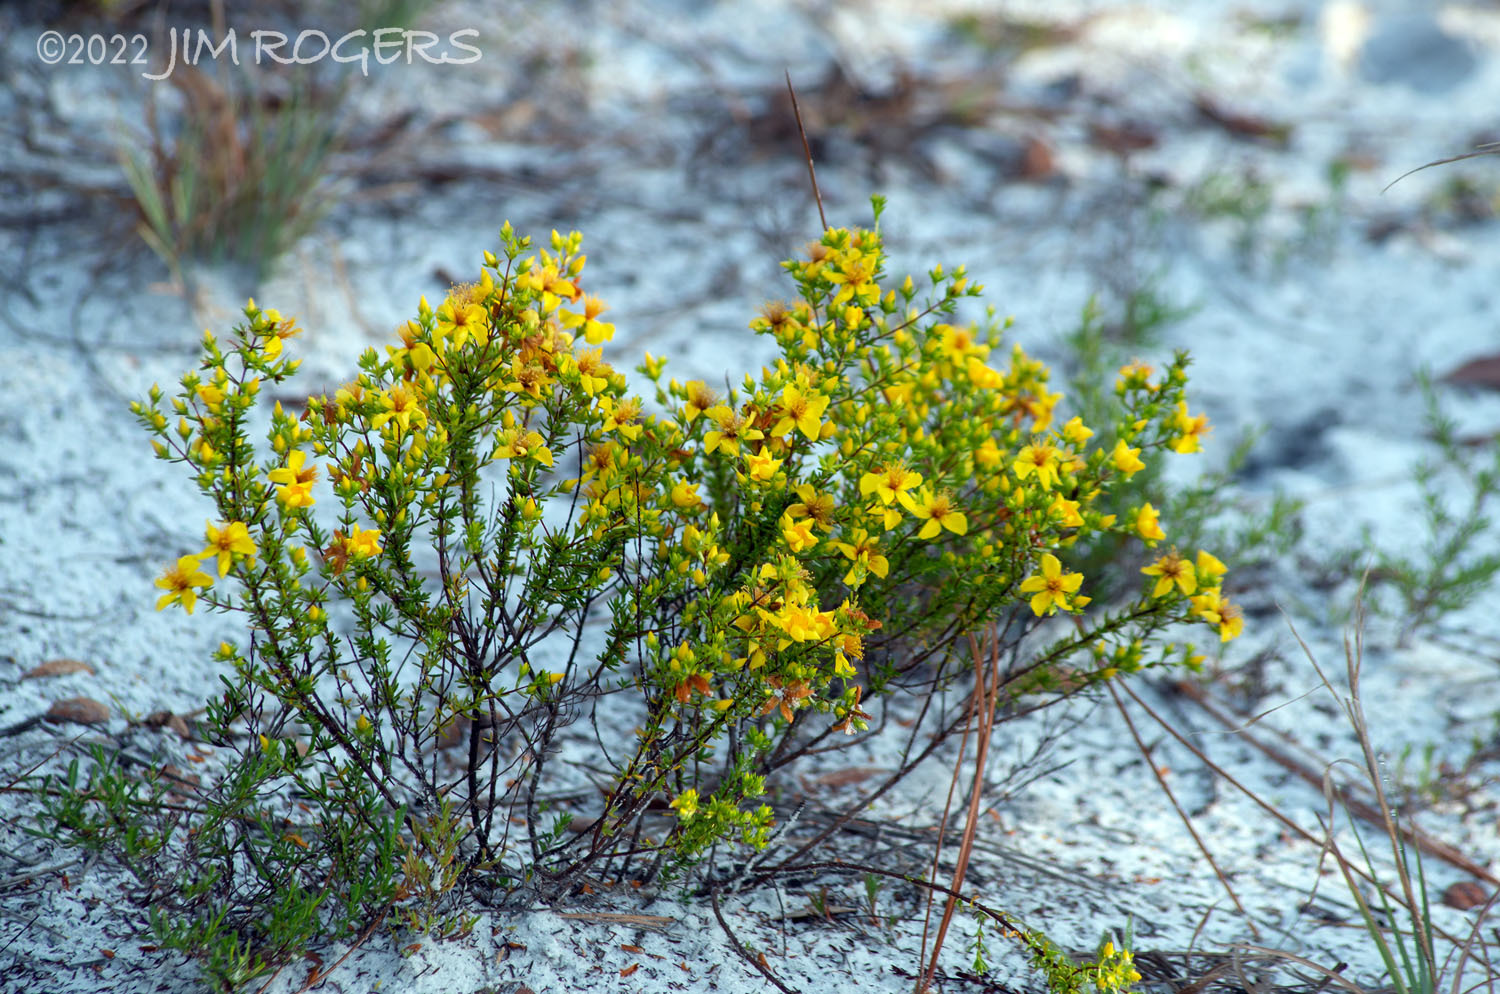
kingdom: Plantae
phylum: Tracheophyta
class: Magnoliopsida
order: Malpighiales
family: Hypericaceae
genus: Hypericum
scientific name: Hypericum tenuifolium
